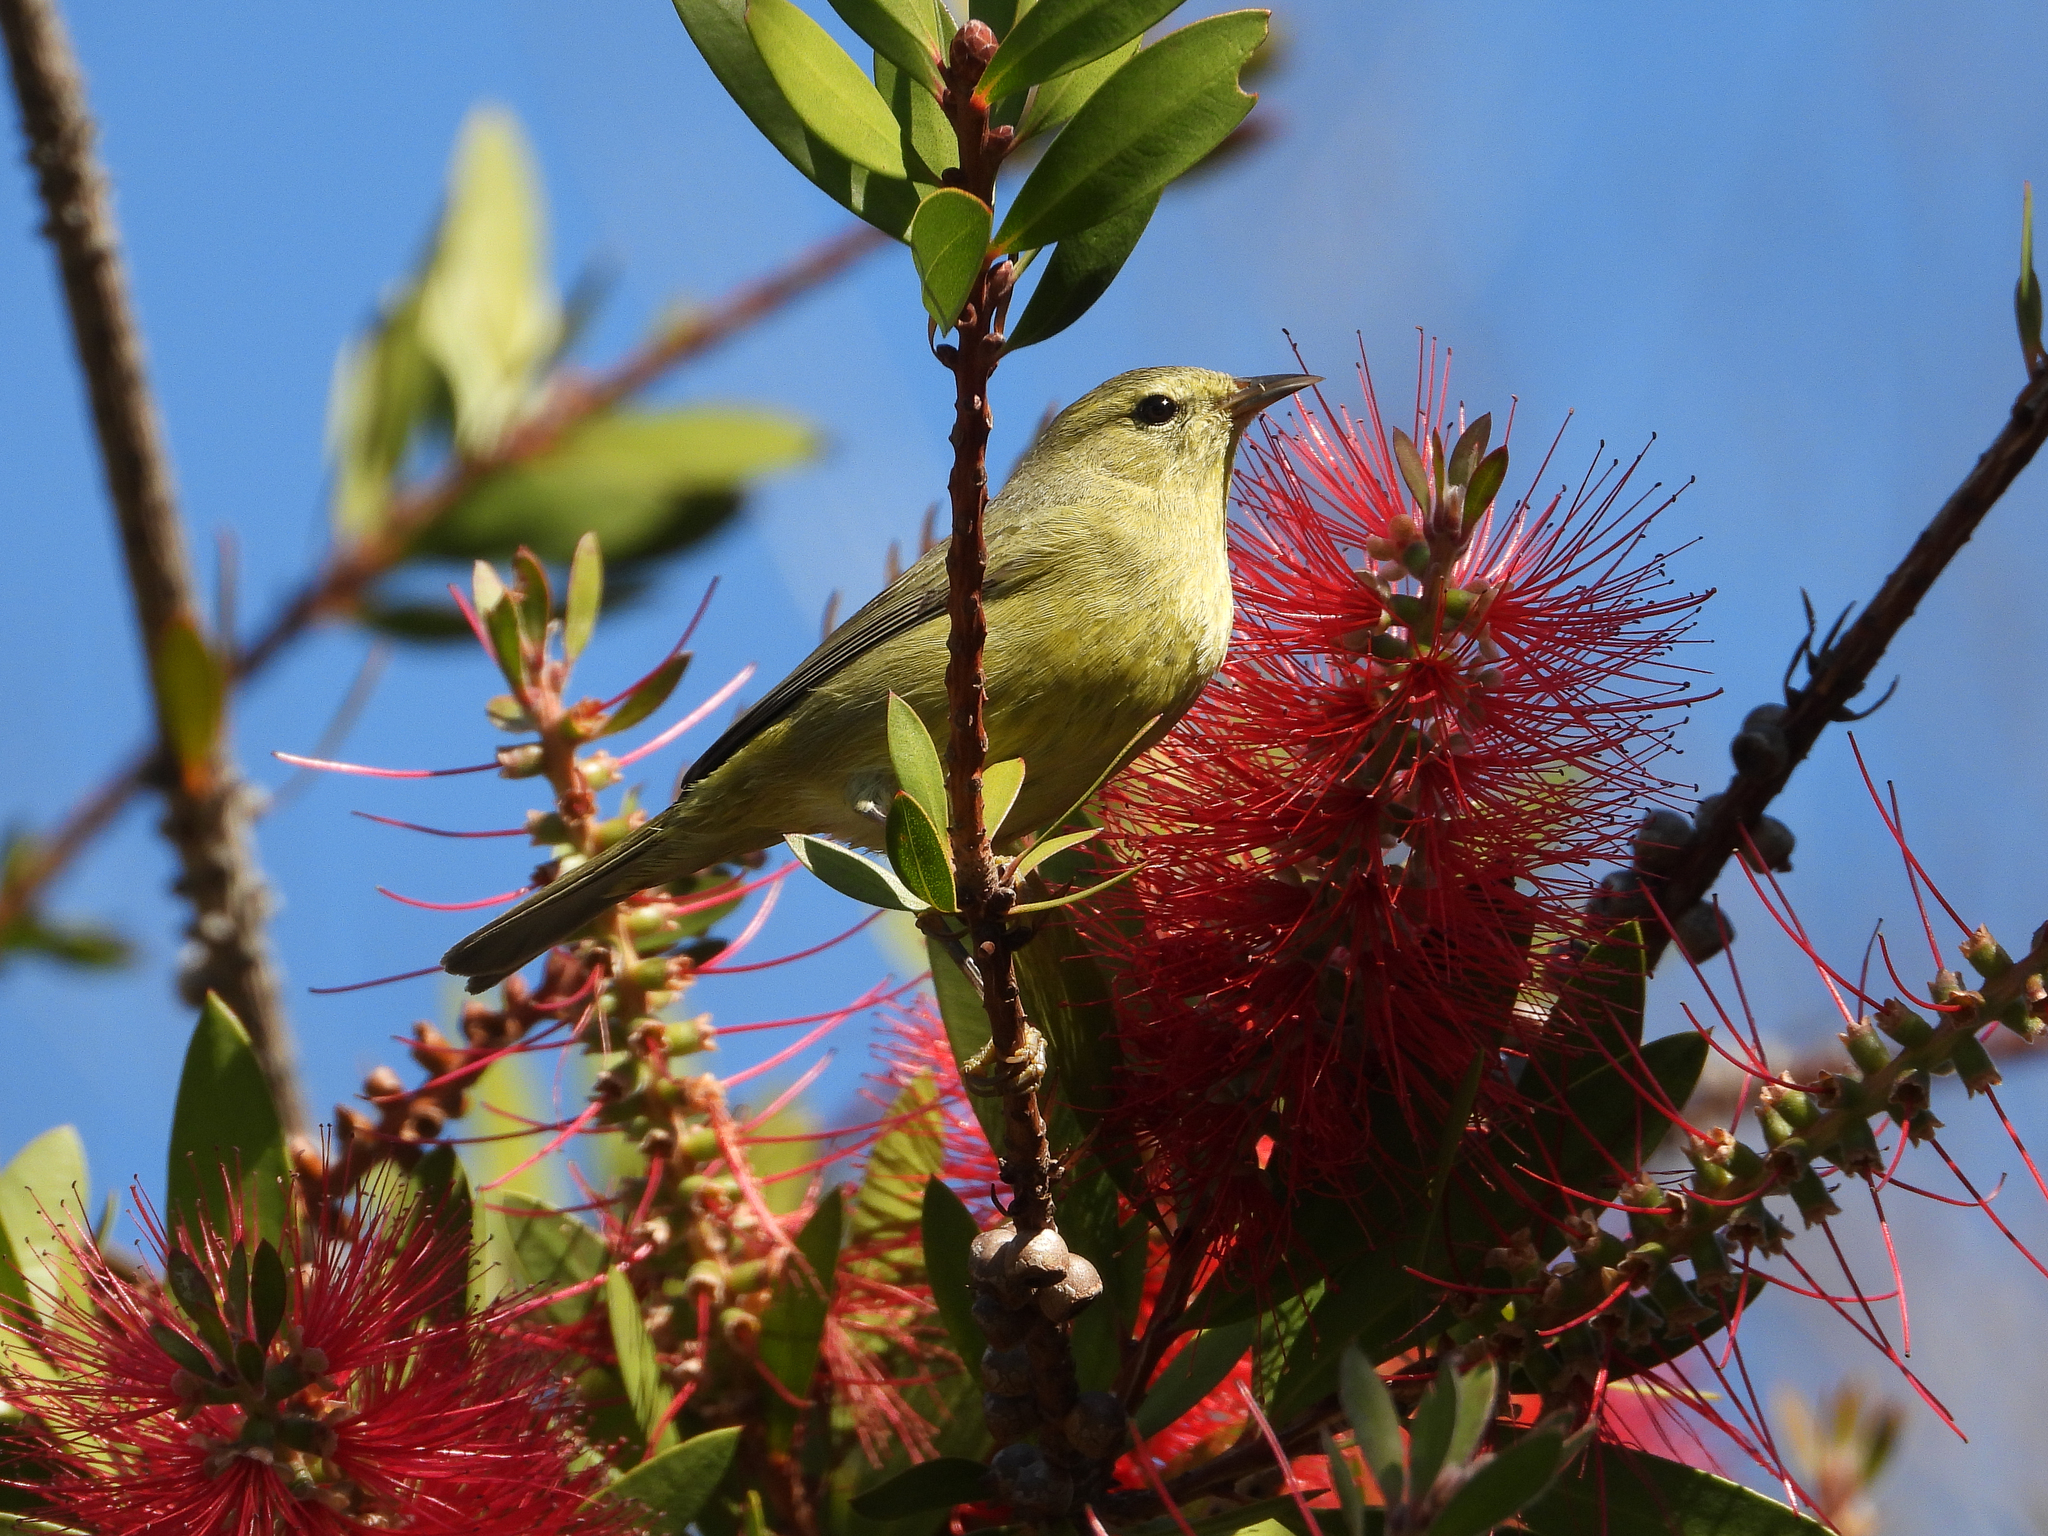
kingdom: Animalia
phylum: Chordata
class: Aves
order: Passeriformes
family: Parulidae
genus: Leiothlypis
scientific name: Leiothlypis celata
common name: Orange-crowned warbler
